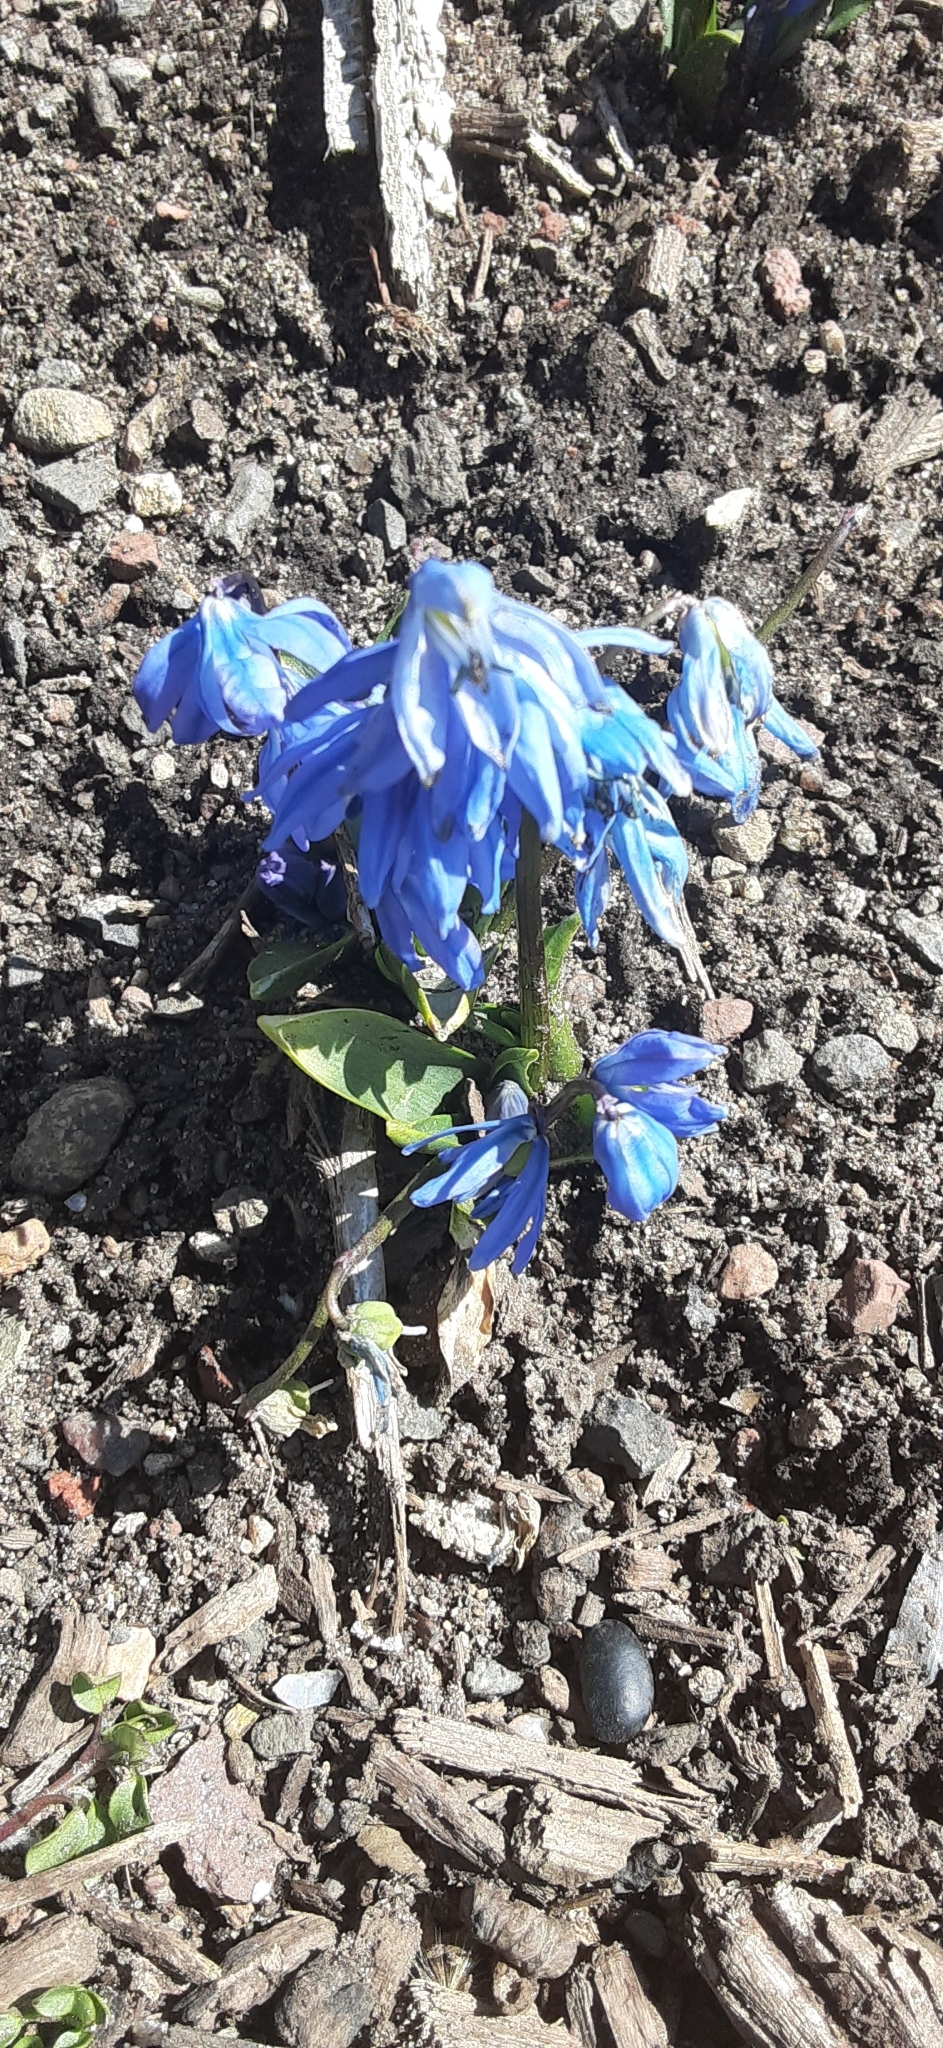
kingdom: Plantae
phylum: Tracheophyta
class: Liliopsida
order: Asparagales
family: Asparagaceae
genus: Scilla
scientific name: Scilla siberica
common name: Siberian squill
